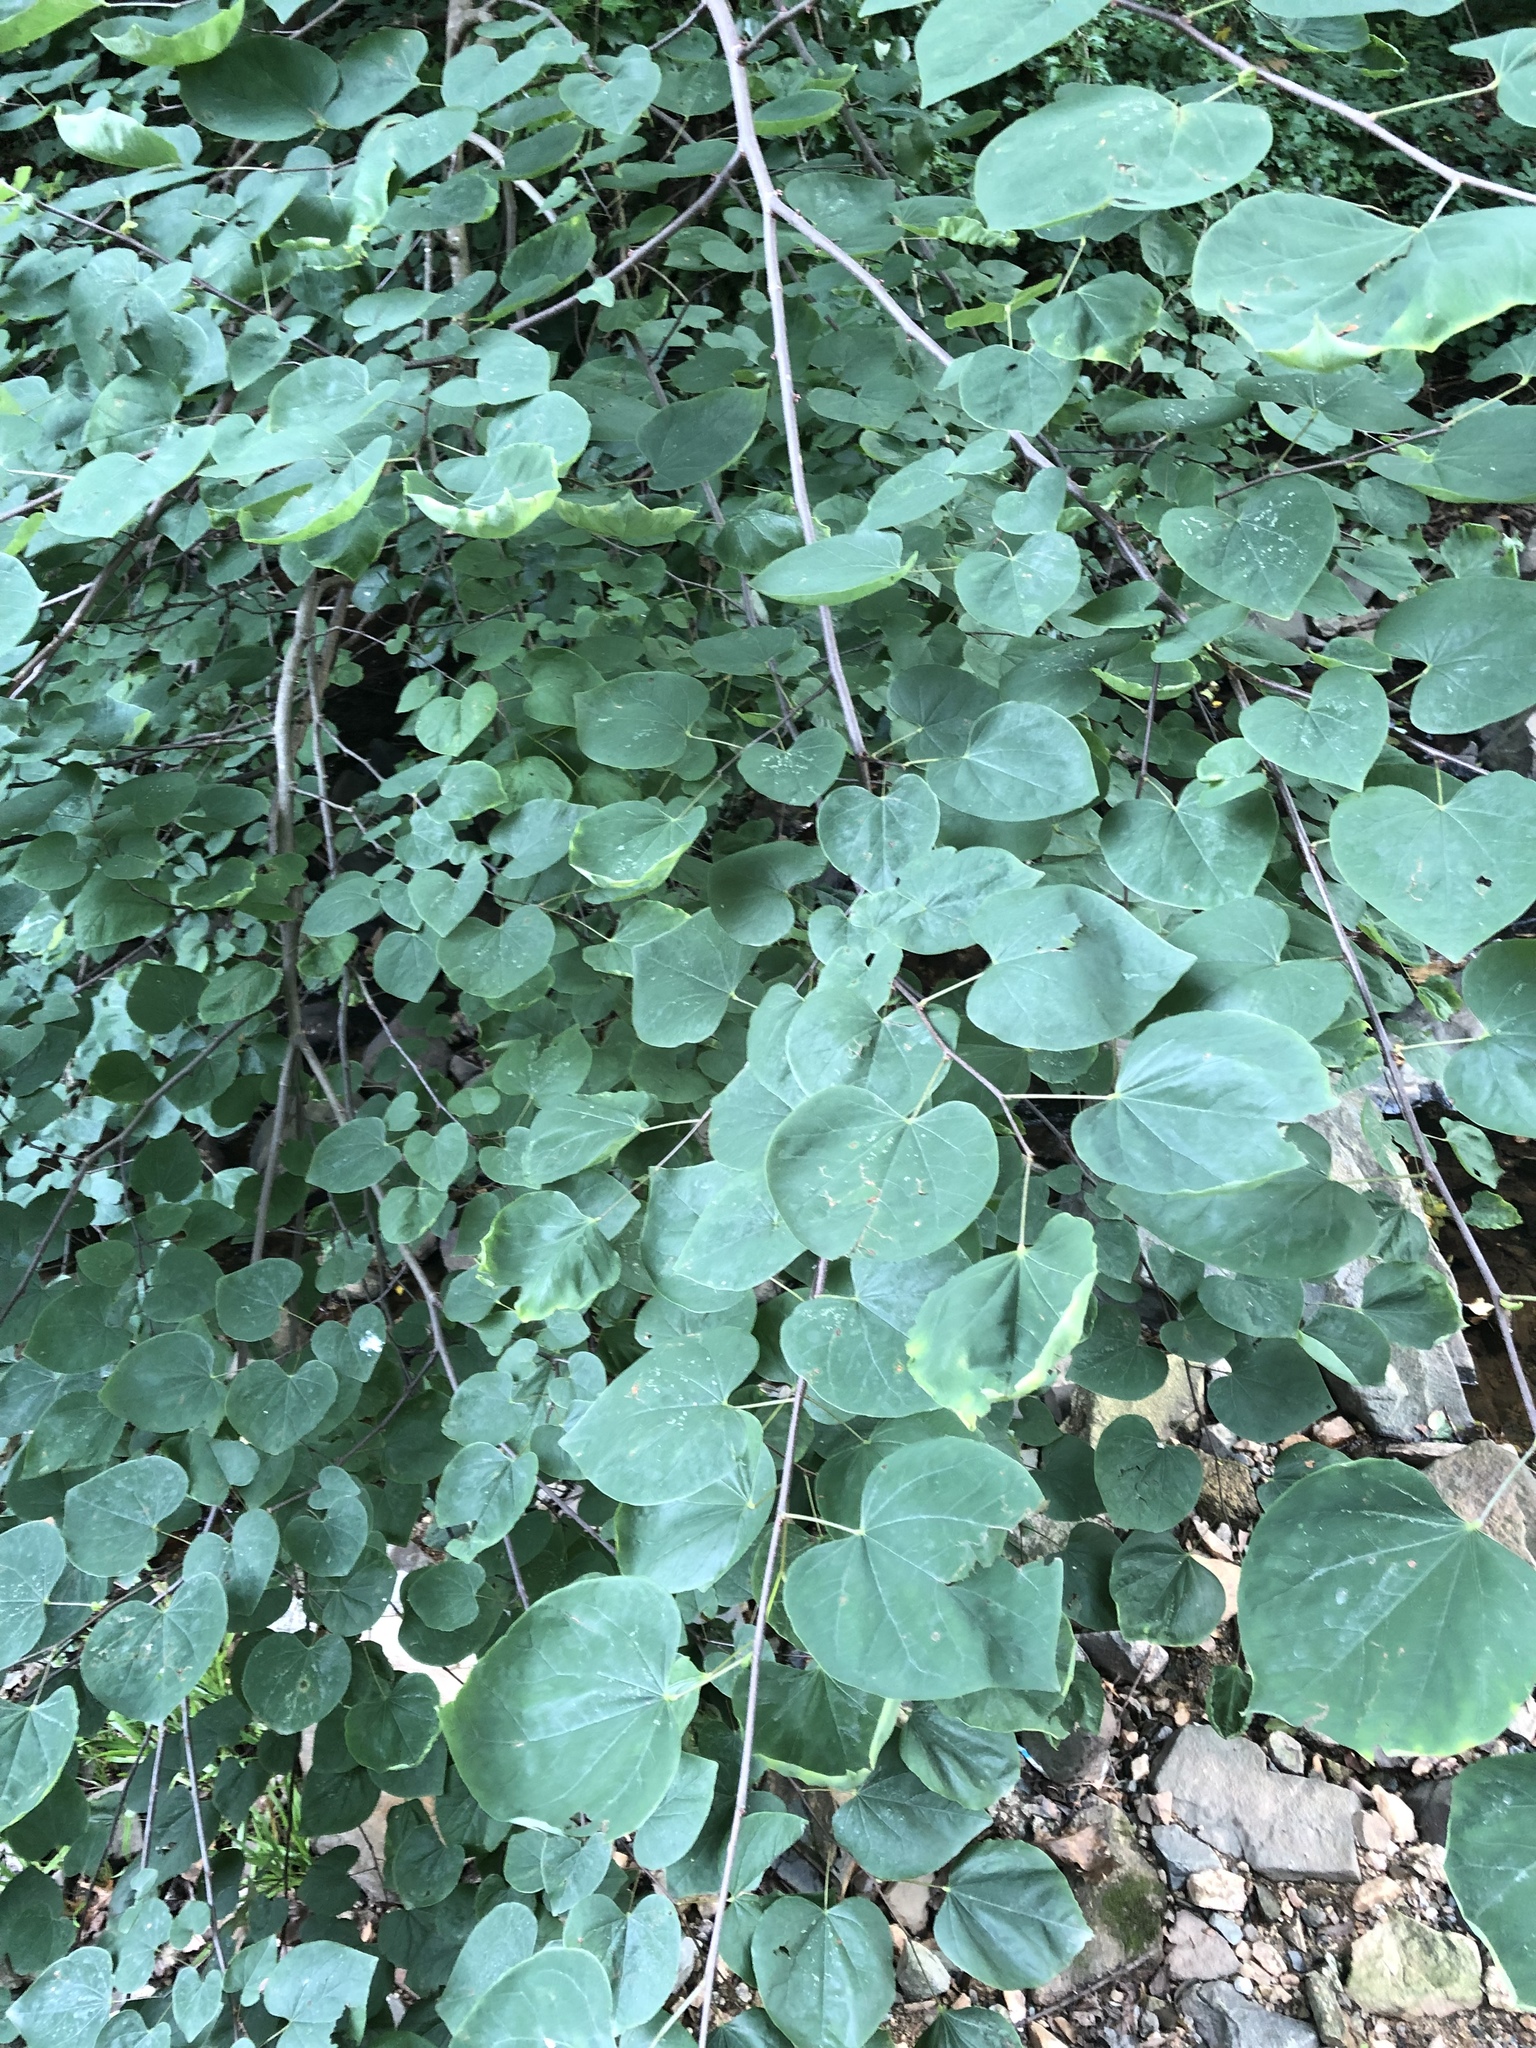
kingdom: Plantae
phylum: Tracheophyta
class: Magnoliopsida
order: Fabales
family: Fabaceae
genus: Cercis
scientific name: Cercis canadensis
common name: Eastern redbud
